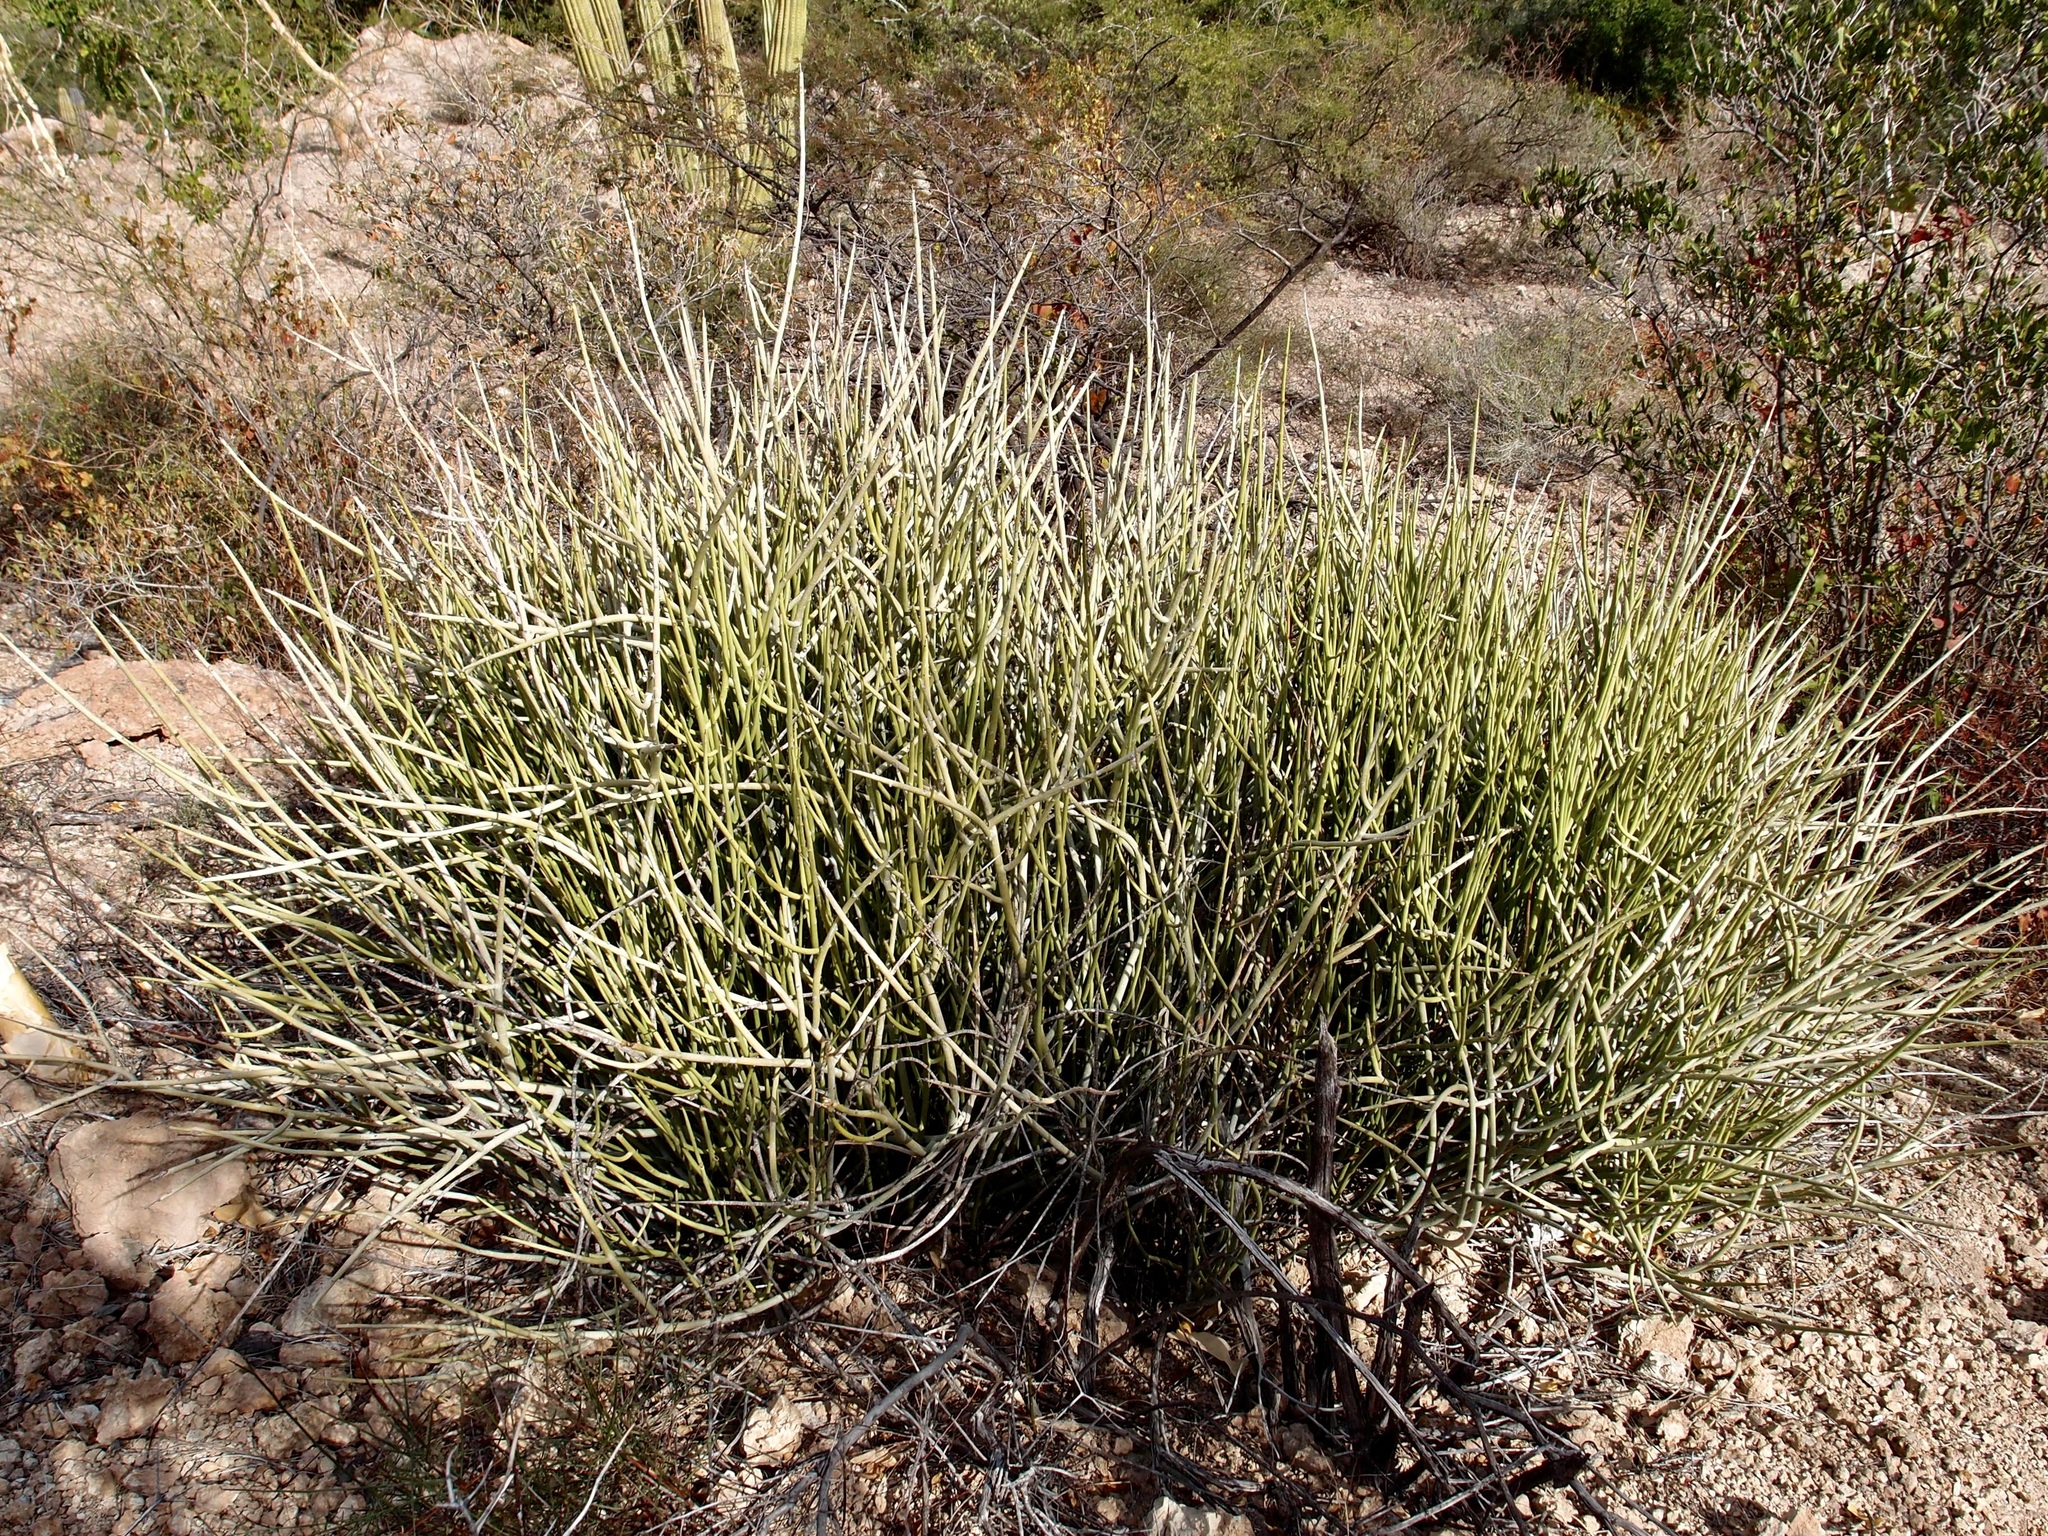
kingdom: Plantae
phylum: Tracheophyta
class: Magnoliopsida
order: Malpighiales
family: Euphorbiaceae
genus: Euphorbia
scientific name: Euphorbia ceroderma
